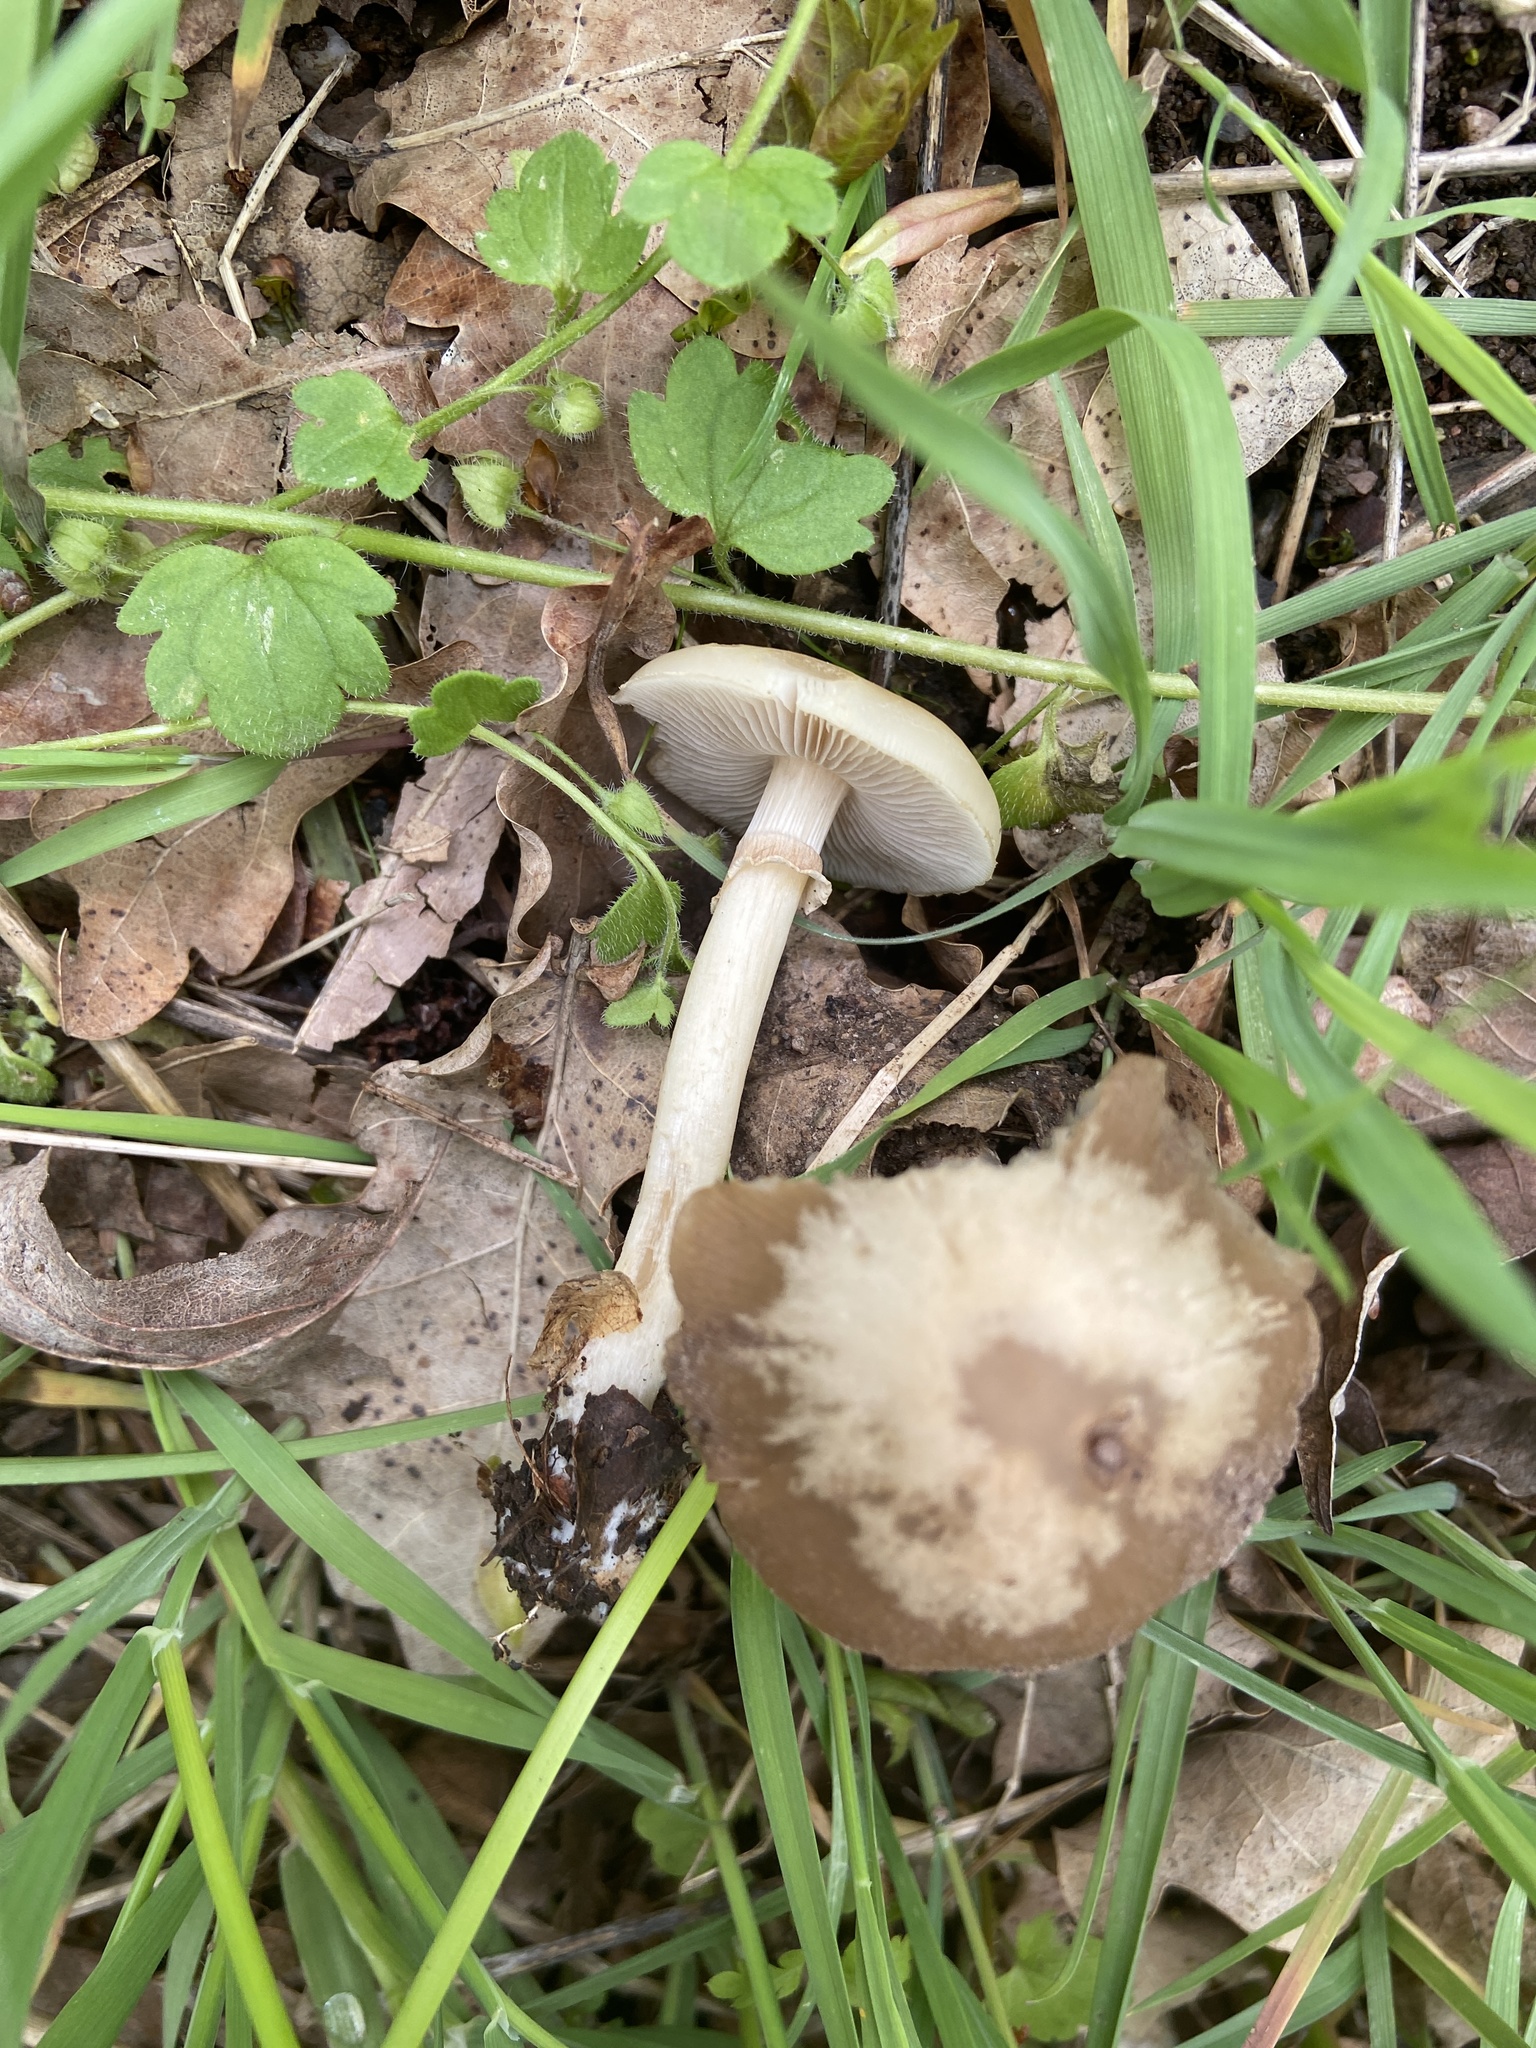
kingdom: Fungi
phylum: Basidiomycota
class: Agaricomycetes
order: Agaricales
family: Strophariaceae
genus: Agrocybe
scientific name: Agrocybe praecox
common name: Spring fieldcap
